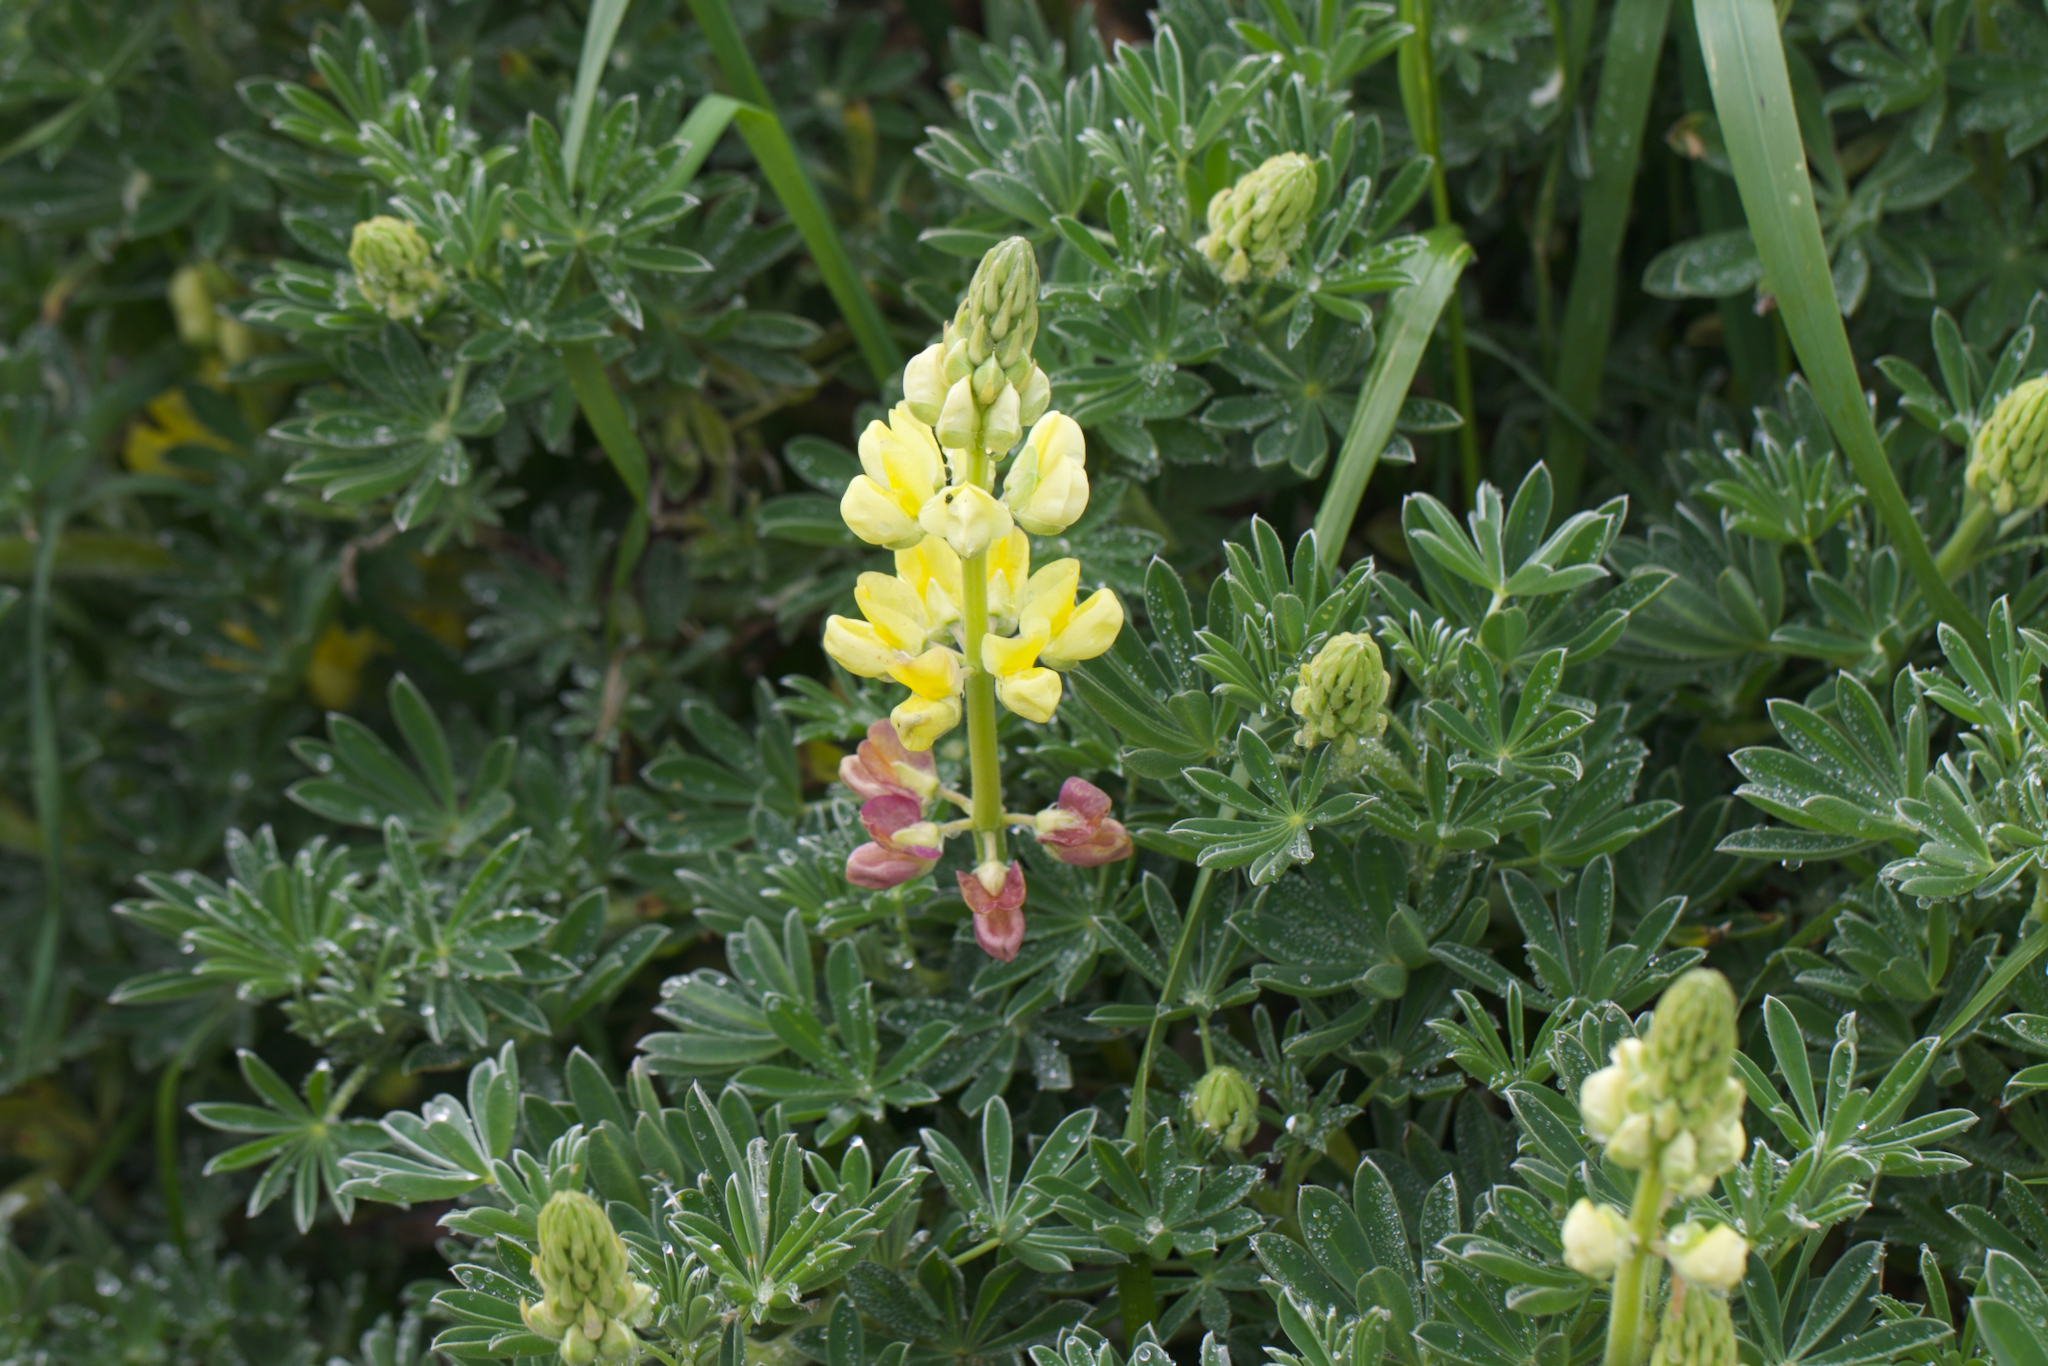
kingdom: Plantae
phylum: Tracheophyta
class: Magnoliopsida
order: Fabales
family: Fabaceae
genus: Lupinus
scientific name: Lupinus arboreus
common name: Yellow bush lupine
